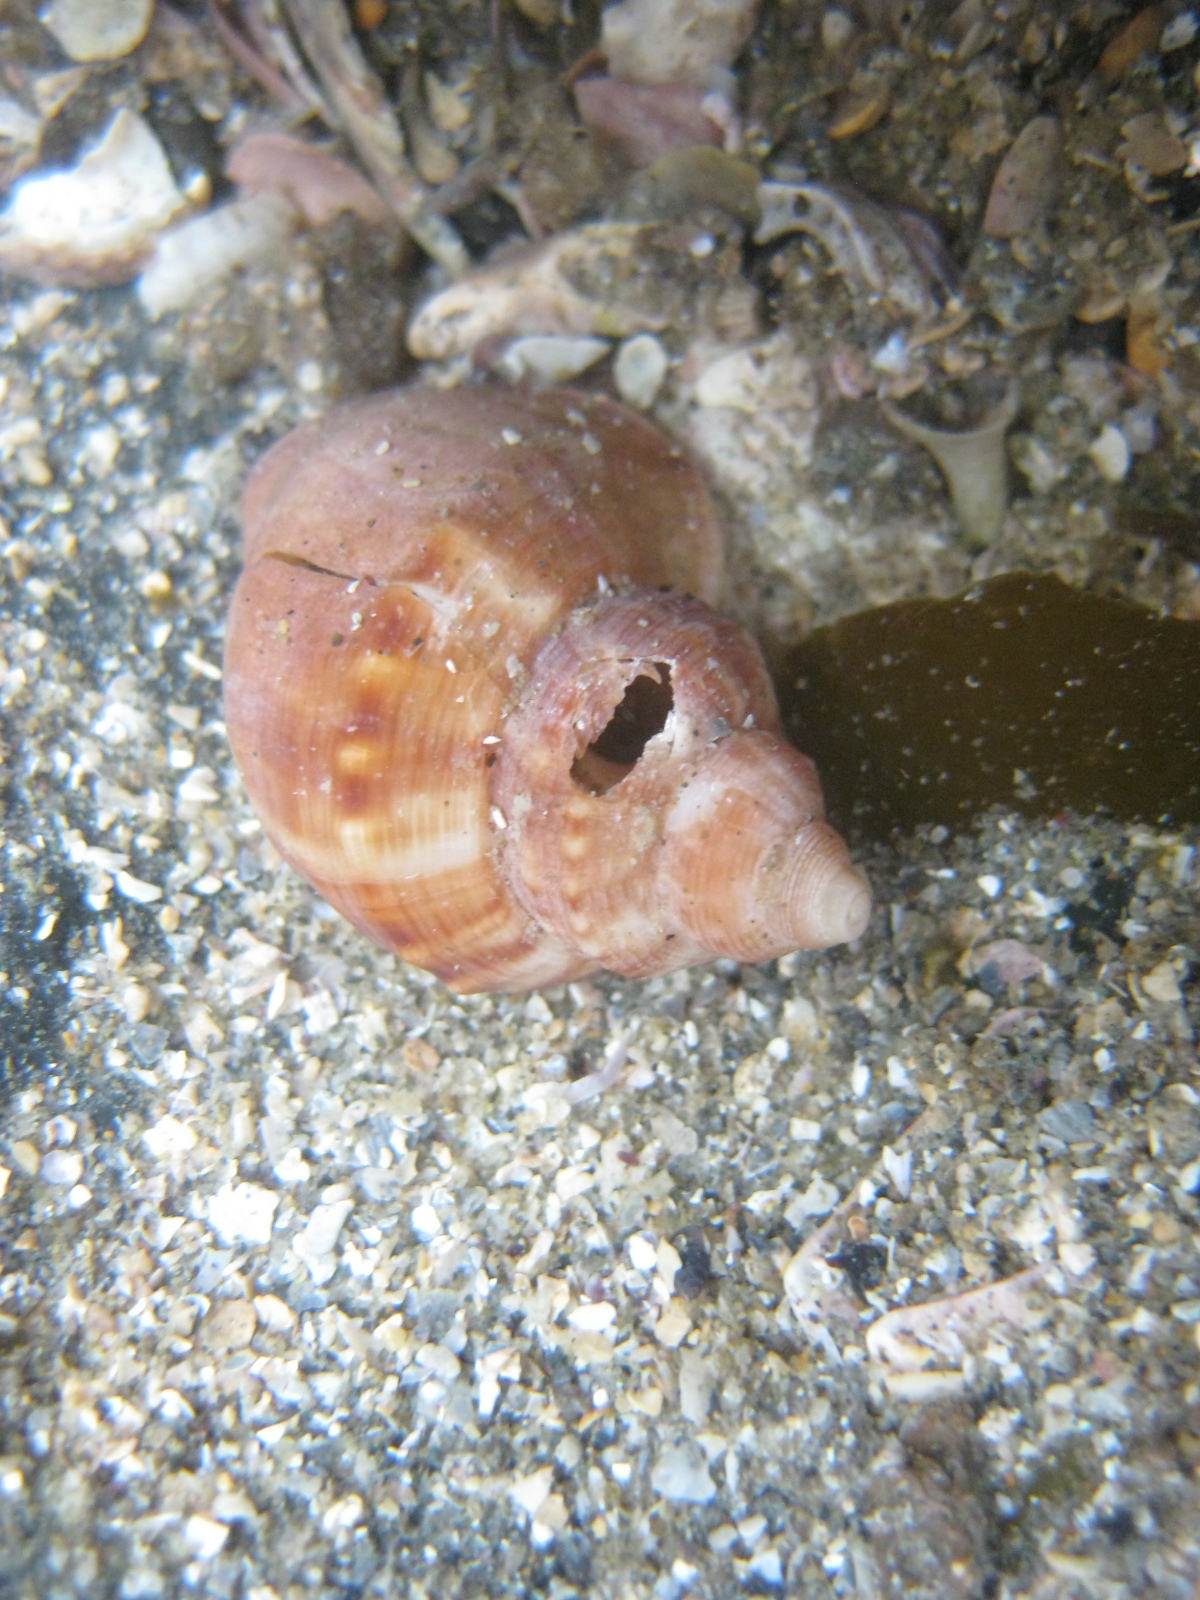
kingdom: Animalia
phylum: Mollusca
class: Gastropoda
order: Littorinimorpha
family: Struthiolariidae
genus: Pelicaria
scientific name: Pelicaria vermis
